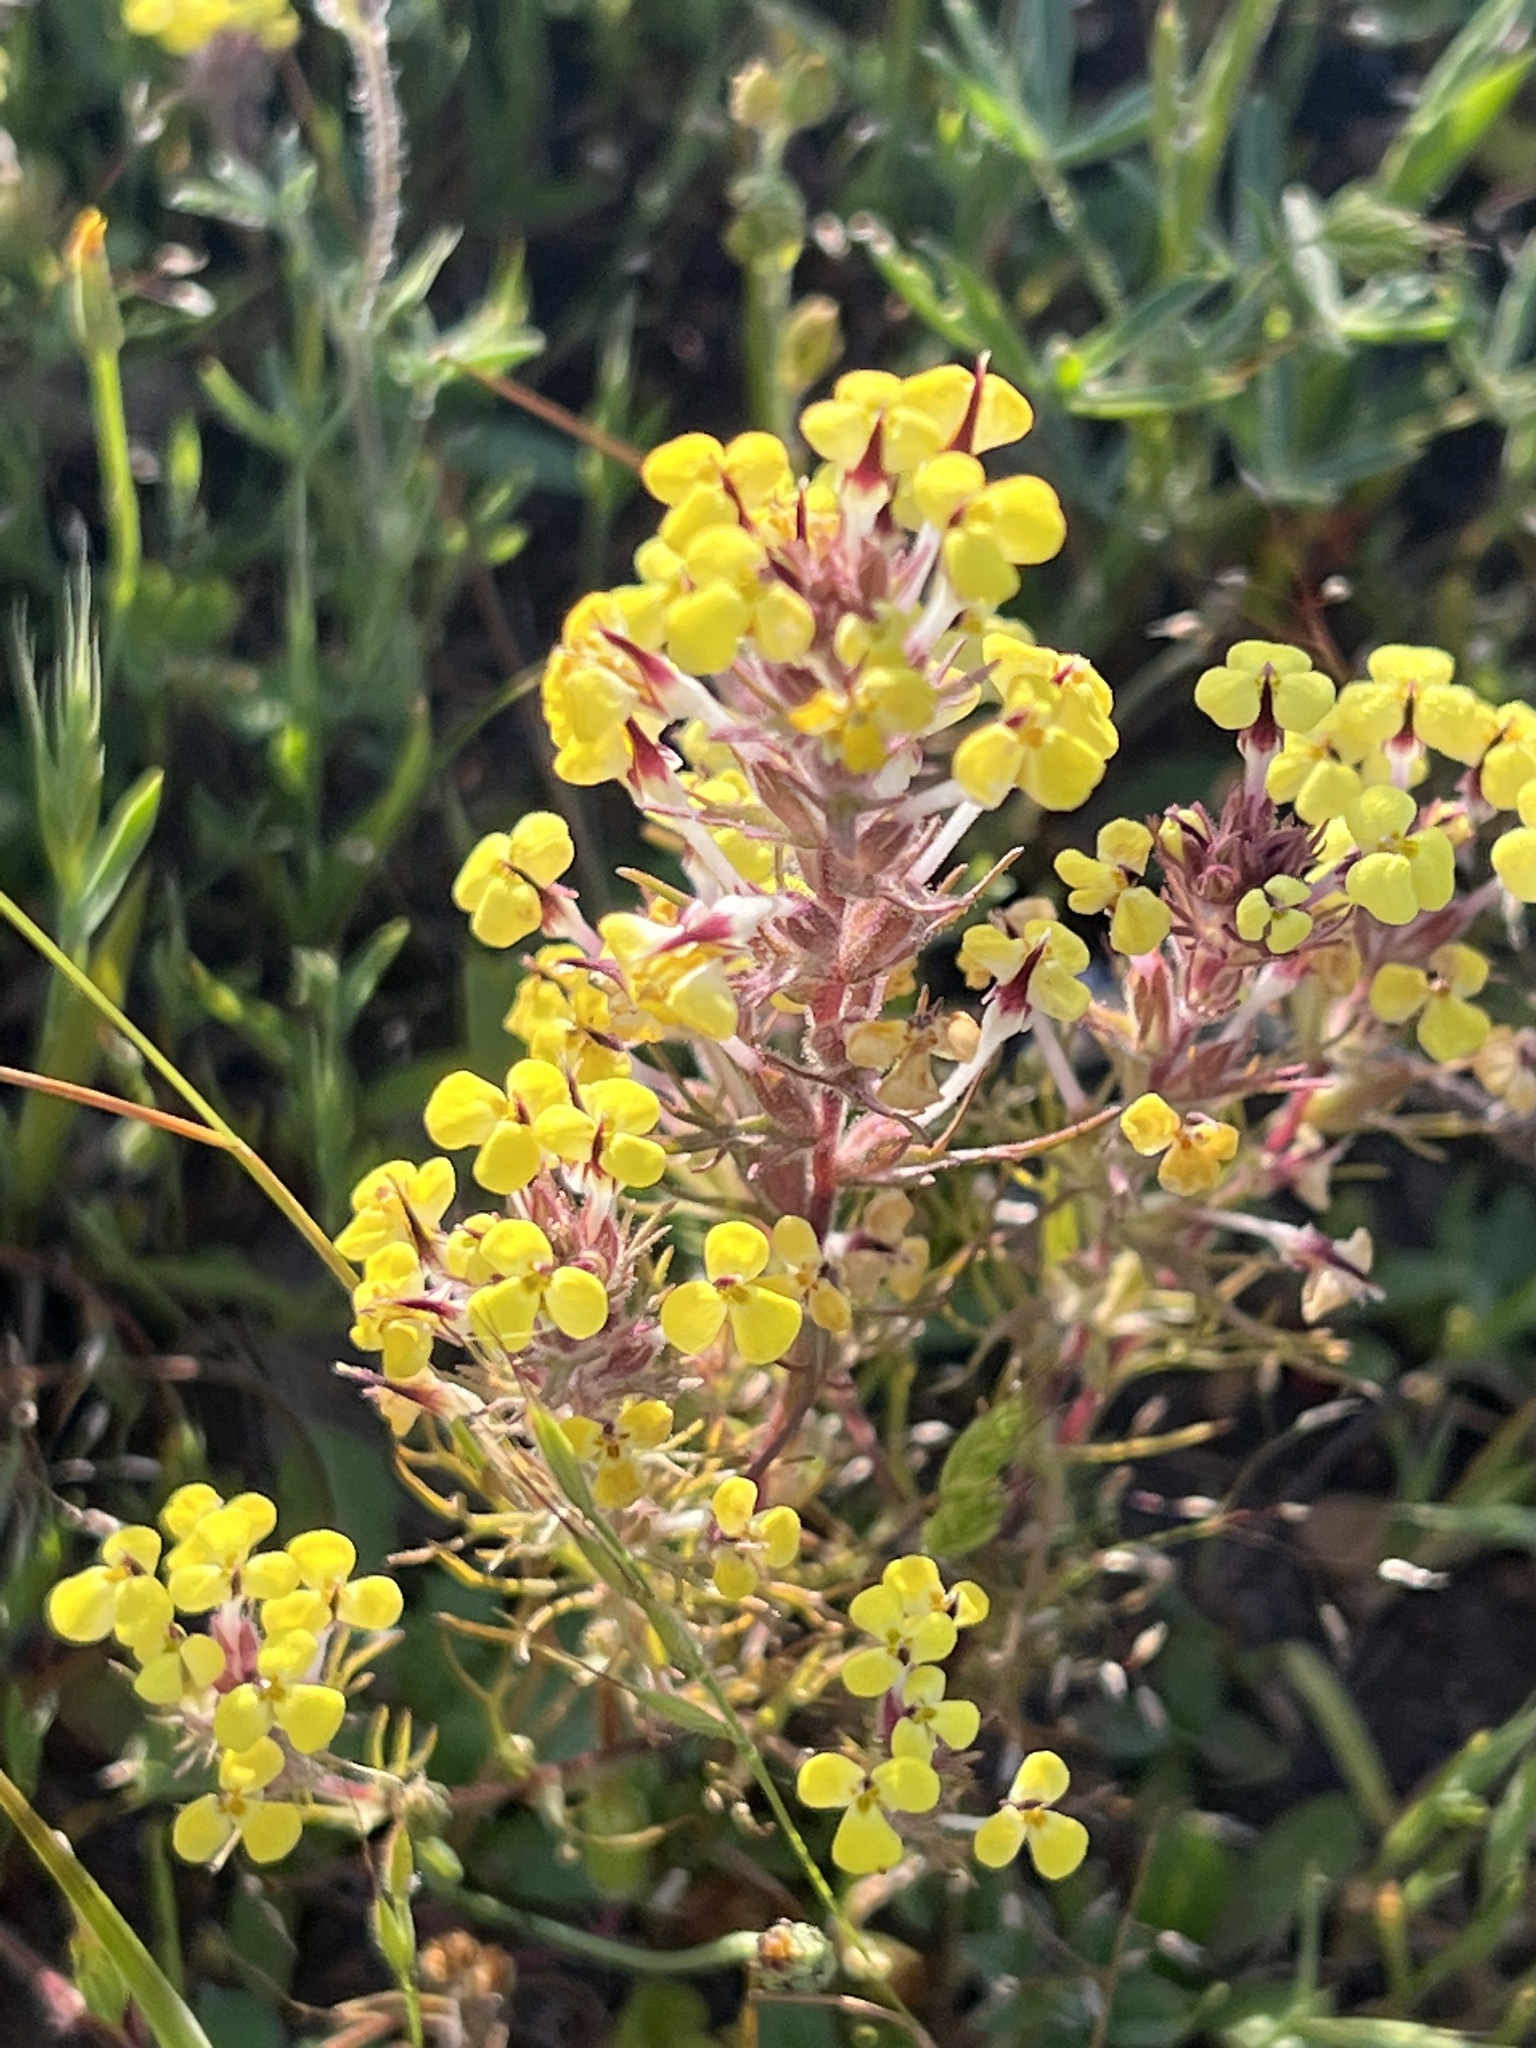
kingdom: Plantae
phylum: Tracheophyta
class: Magnoliopsida
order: Lamiales
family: Orobanchaceae
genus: Triphysaria
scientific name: Triphysaria eriantha
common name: Johnny-tuck
